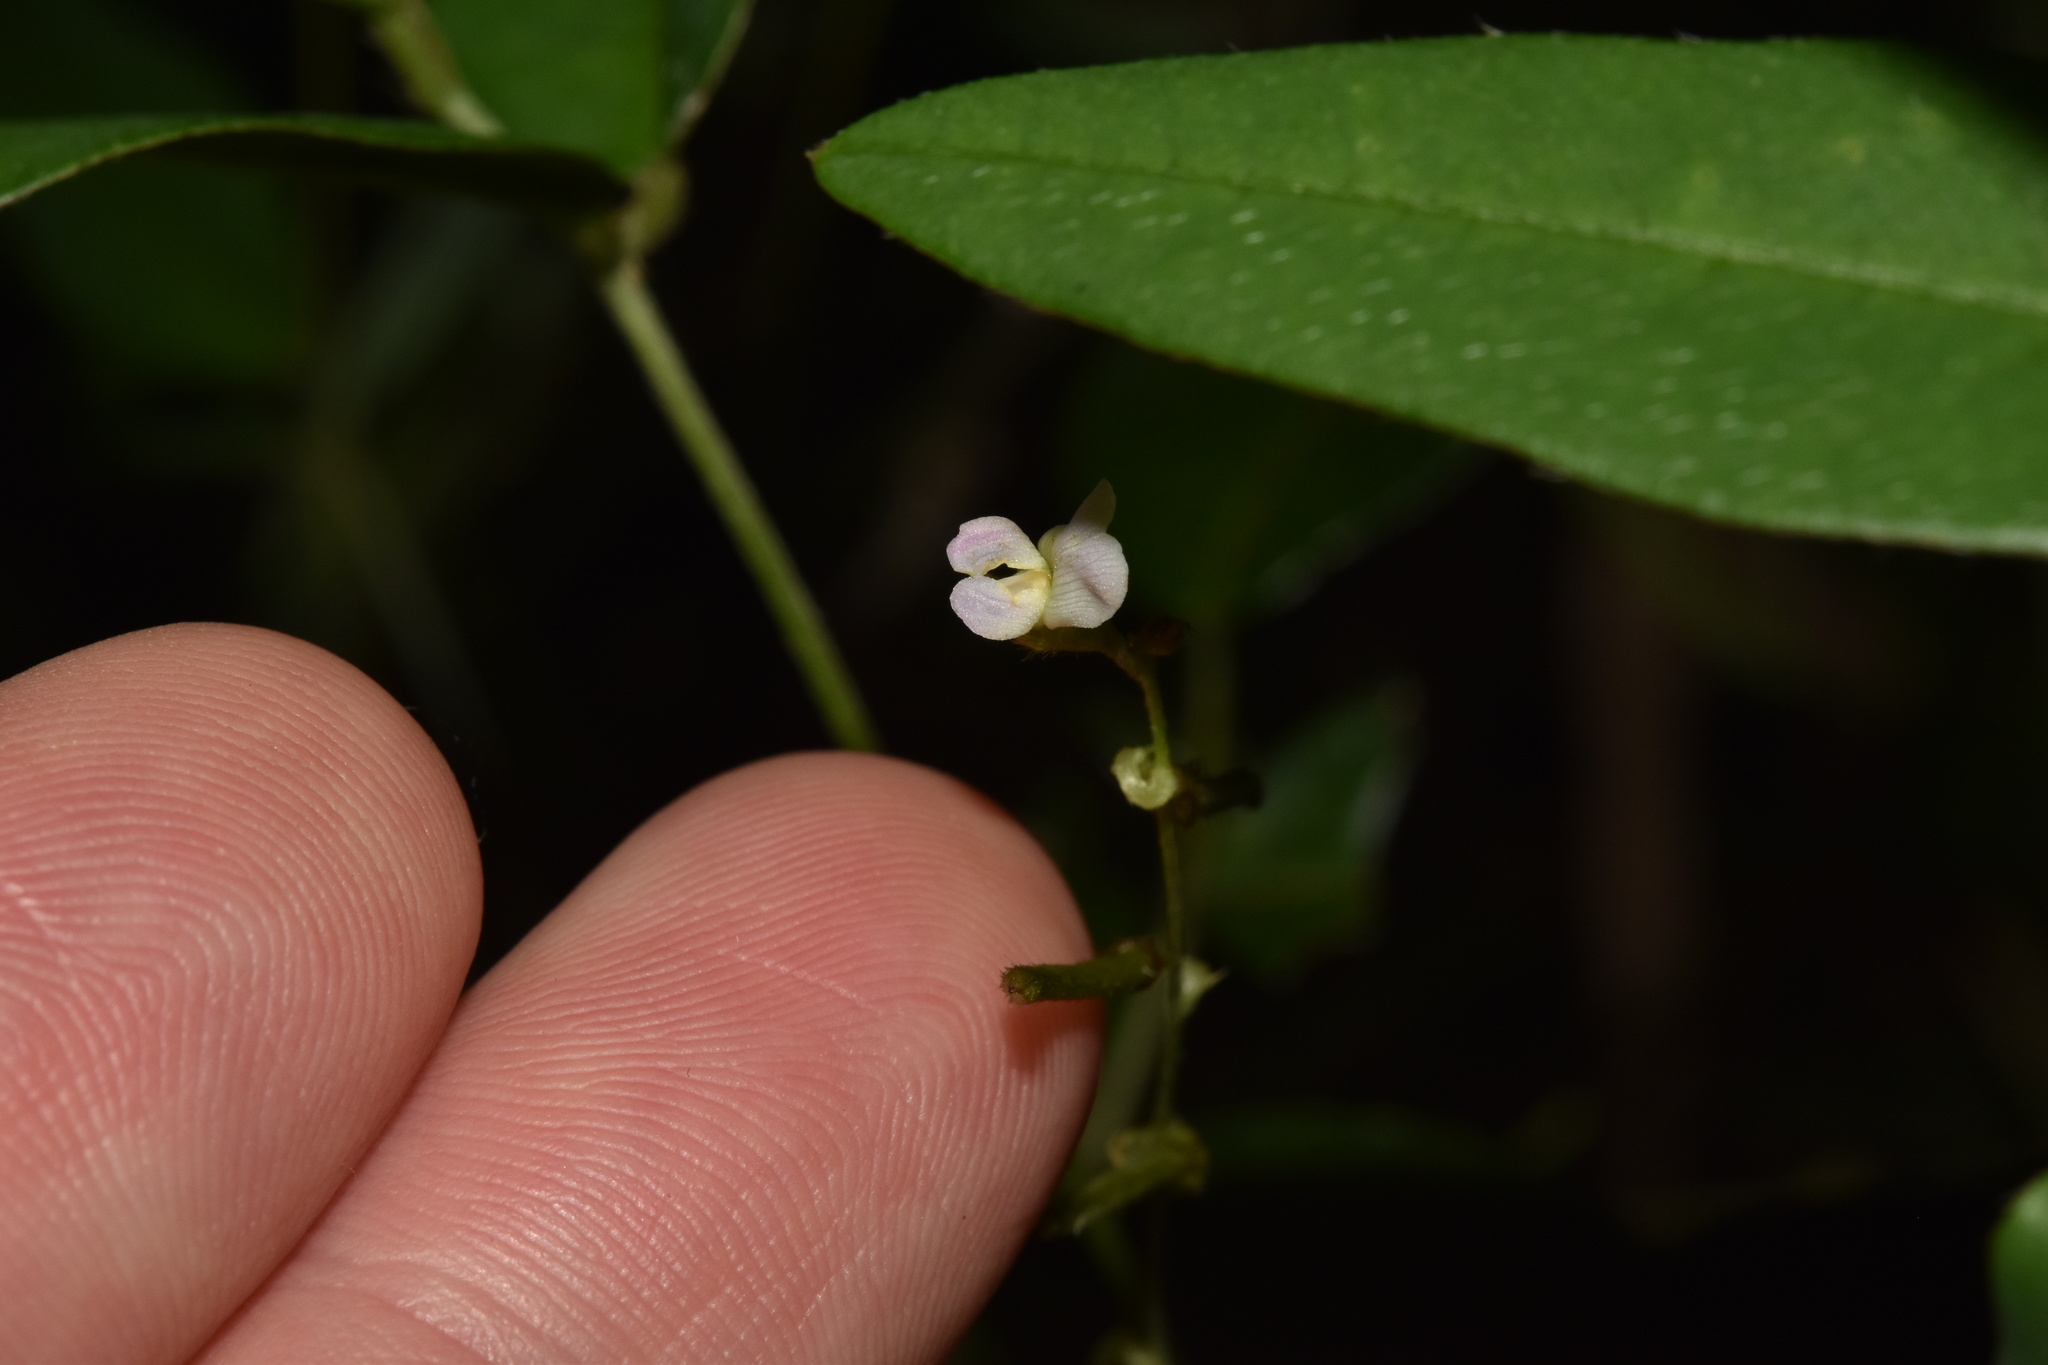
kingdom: Plantae
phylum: Tracheophyta
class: Magnoliopsida
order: Fabales
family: Fabaceae
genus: Teramnus
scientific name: Teramnus volubilis
